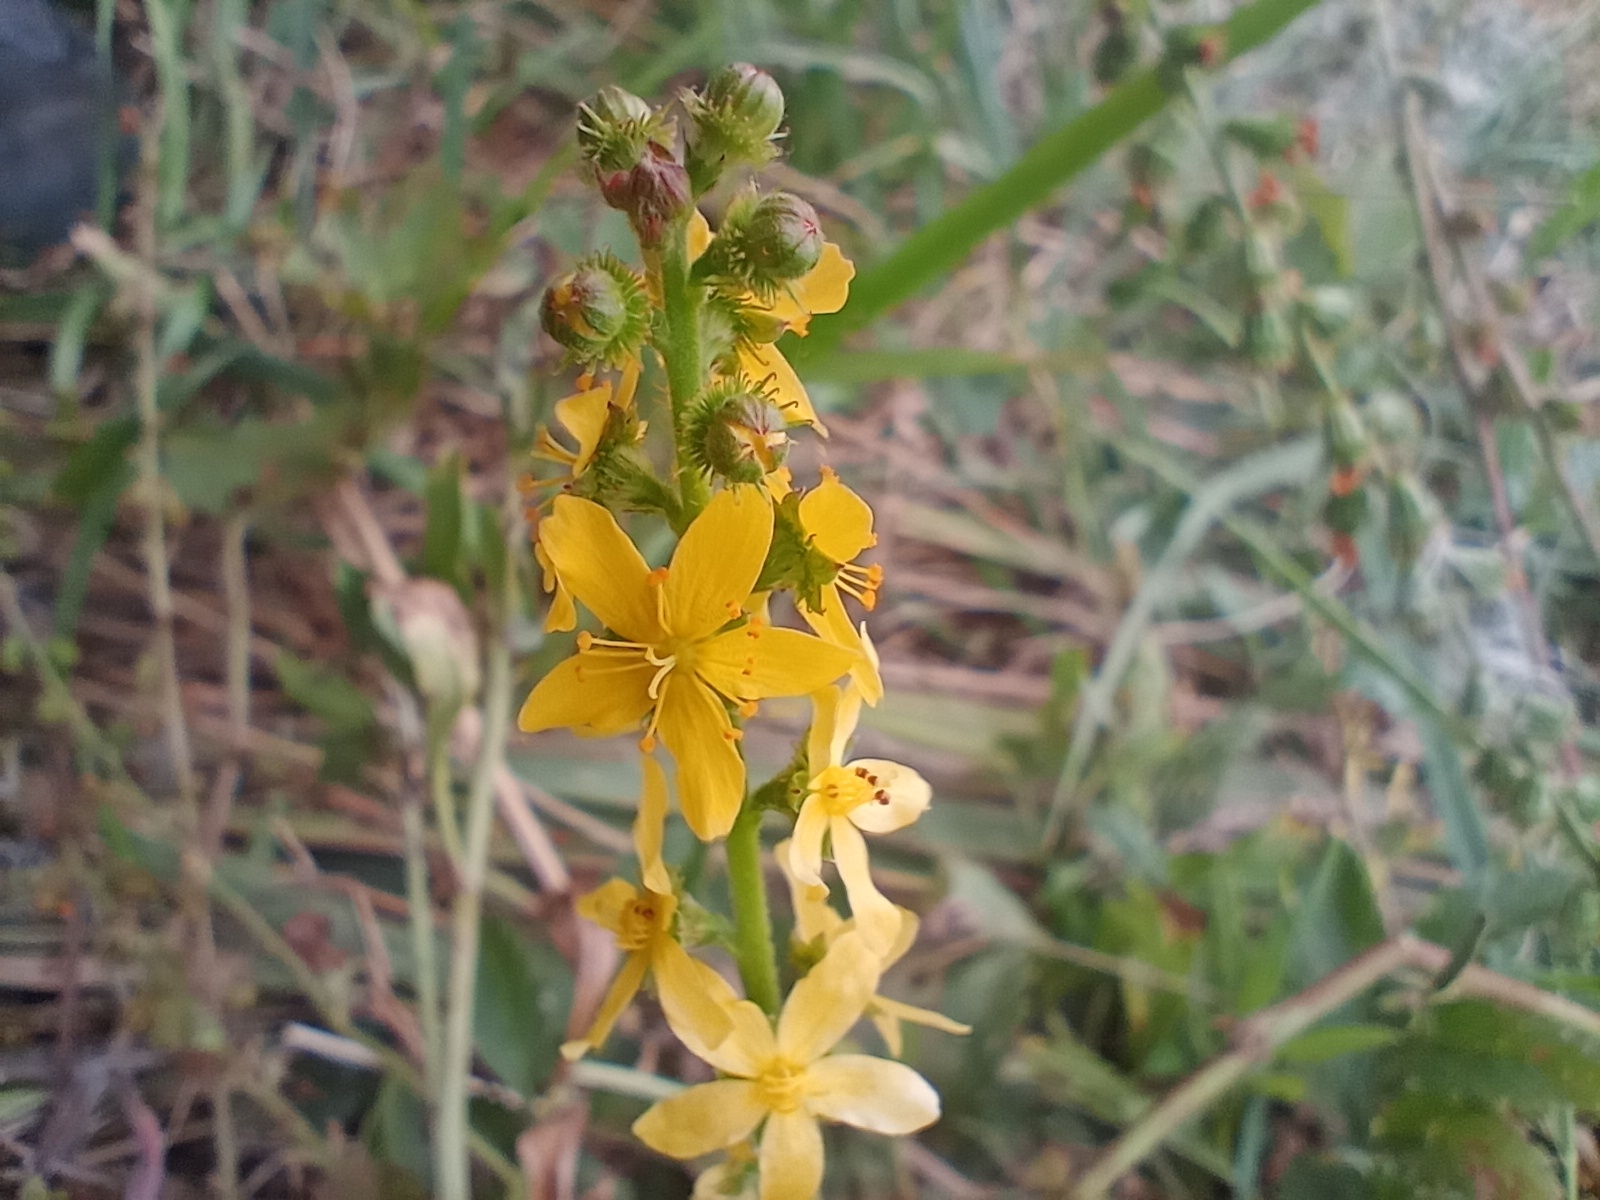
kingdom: Plantae
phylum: Tracheophyta
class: Magnoliopsida
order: Rosales
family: Rosaceae
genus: Agrimonia
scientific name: Agrimonia eupatoria
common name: Agrimony
